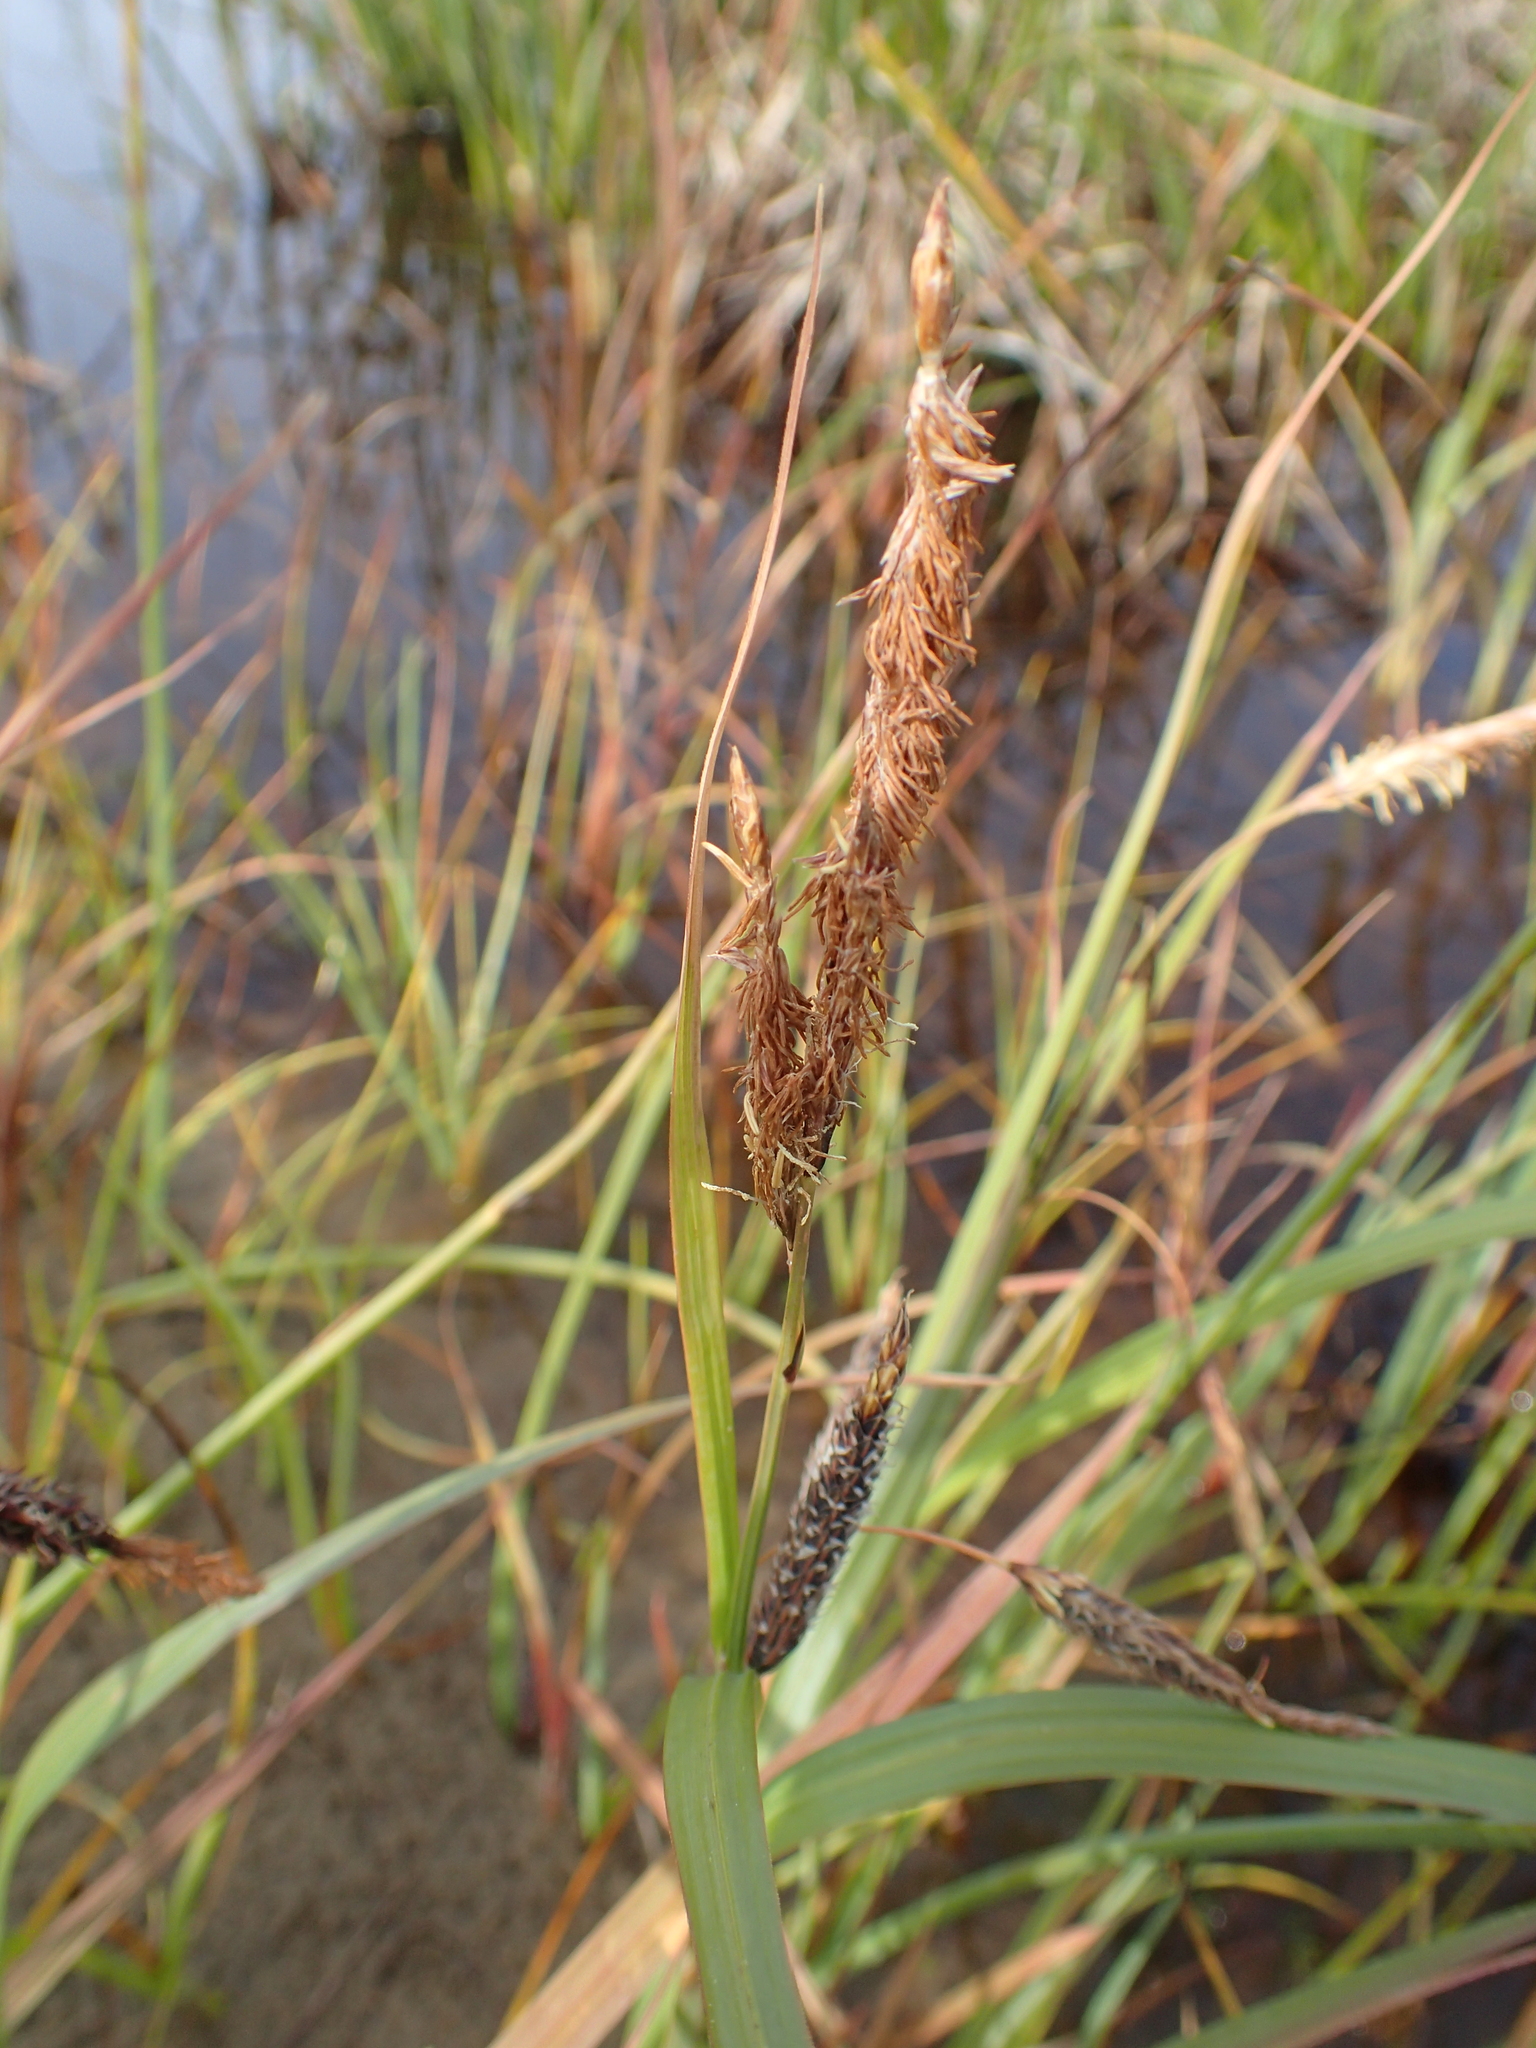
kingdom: Plantae
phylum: Tracheophyta
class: Liliopsida
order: Poales
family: Cyperaceae
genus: Carex
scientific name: Carex lyngbyei
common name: Lyngbye's sedge
